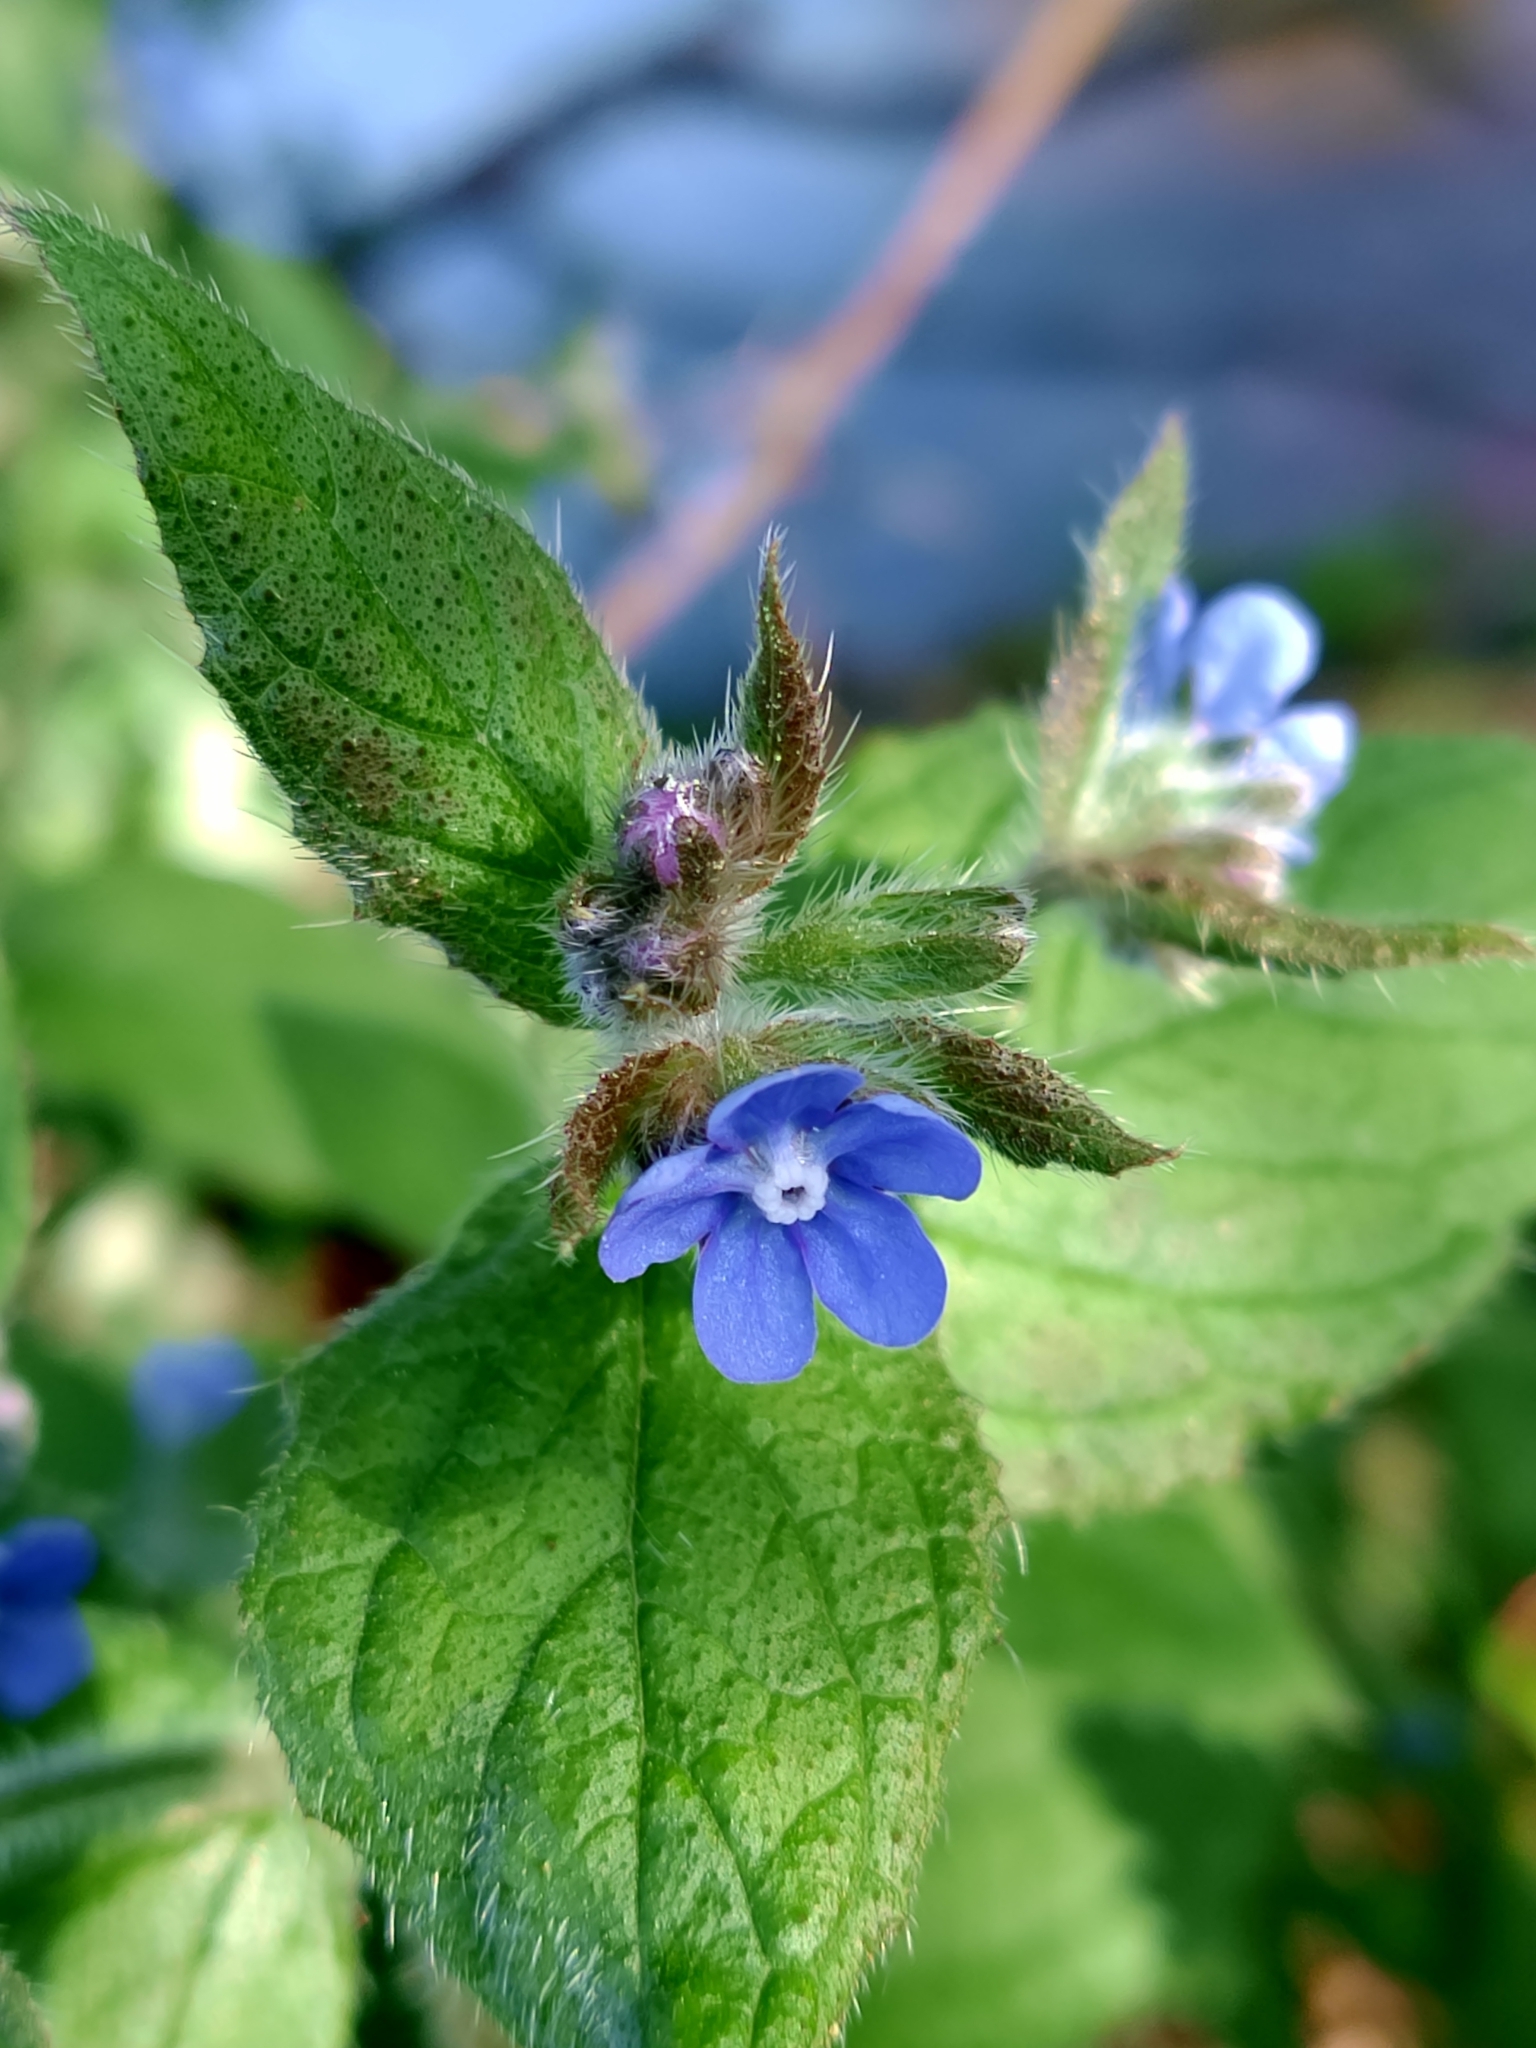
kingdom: Plantae
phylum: Tracheophyta
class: Magnoliopsida
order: Boraginales
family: Boraginaceae
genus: Pentaglottis
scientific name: Pentaglottis sempervirens
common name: Green alkanet
